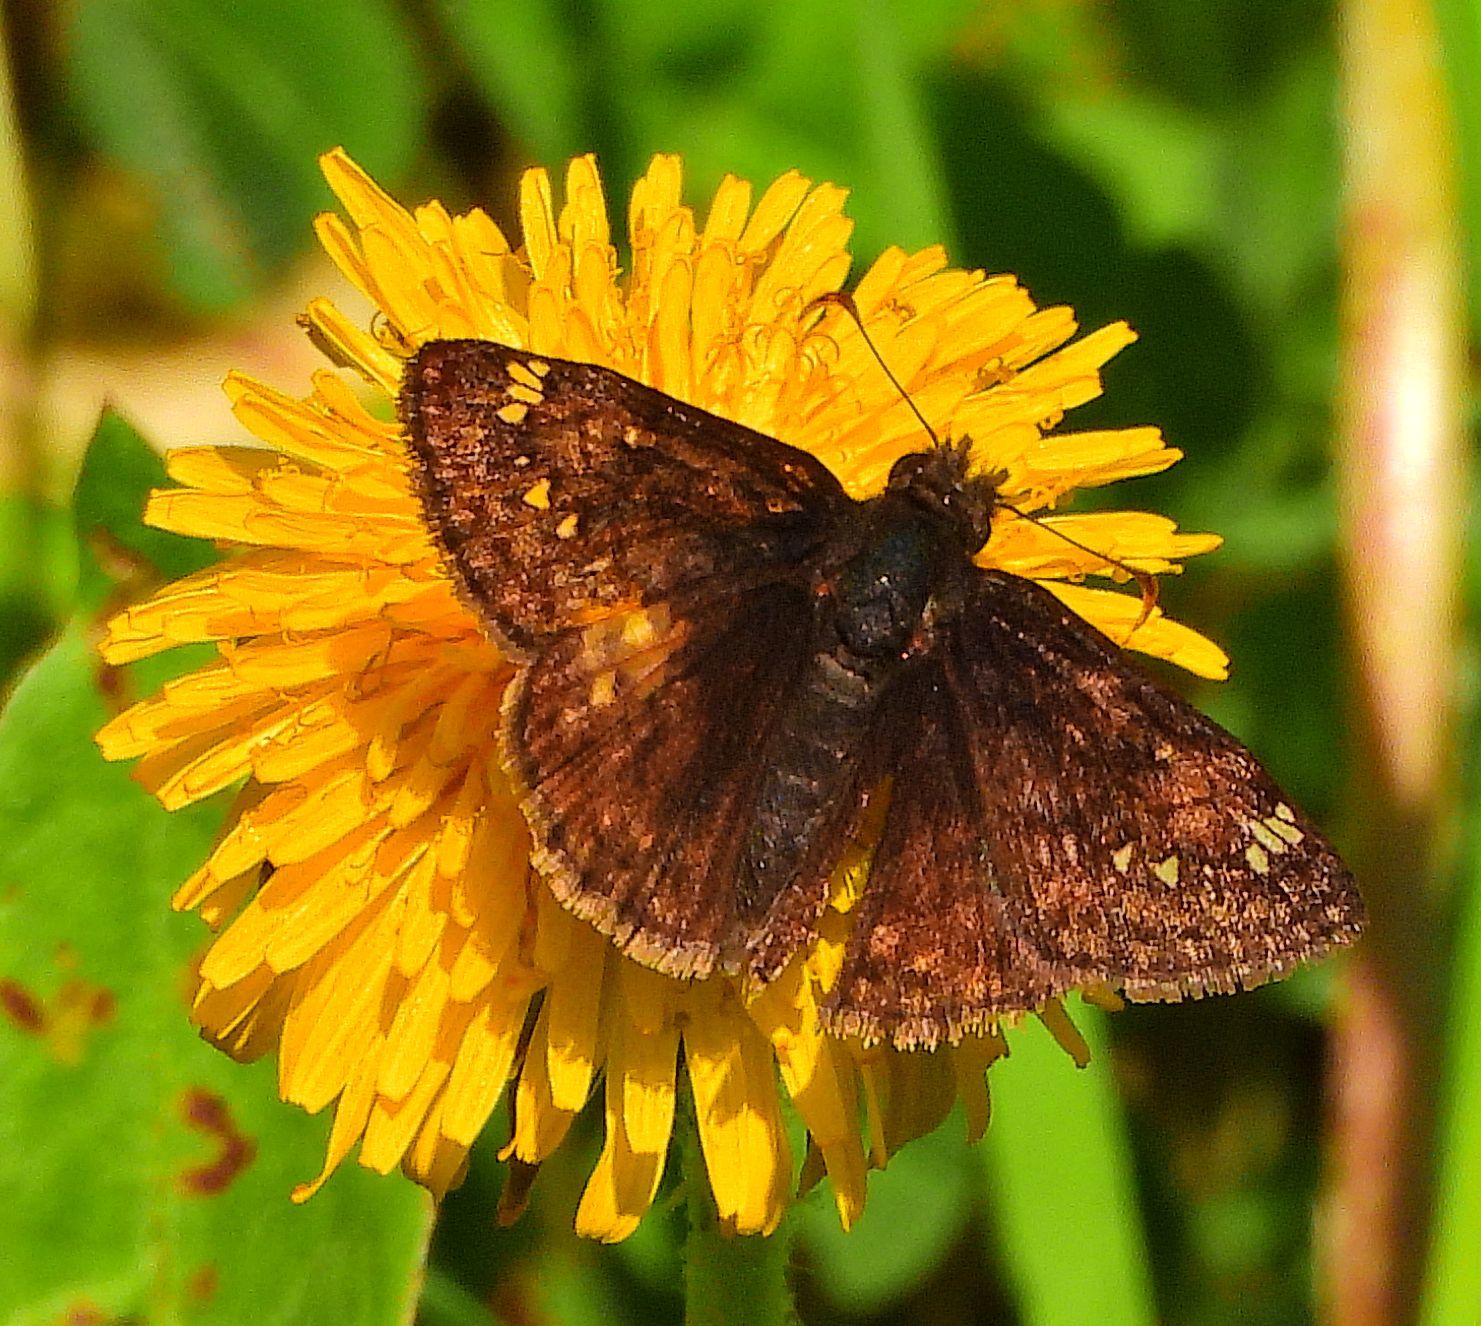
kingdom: Animalia
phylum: Arthropoda
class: Insecta
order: Lepidoptera
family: Hesperiidae
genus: Erynnis
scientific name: Erynnis juvenalis
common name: Juvenal's duskywing
